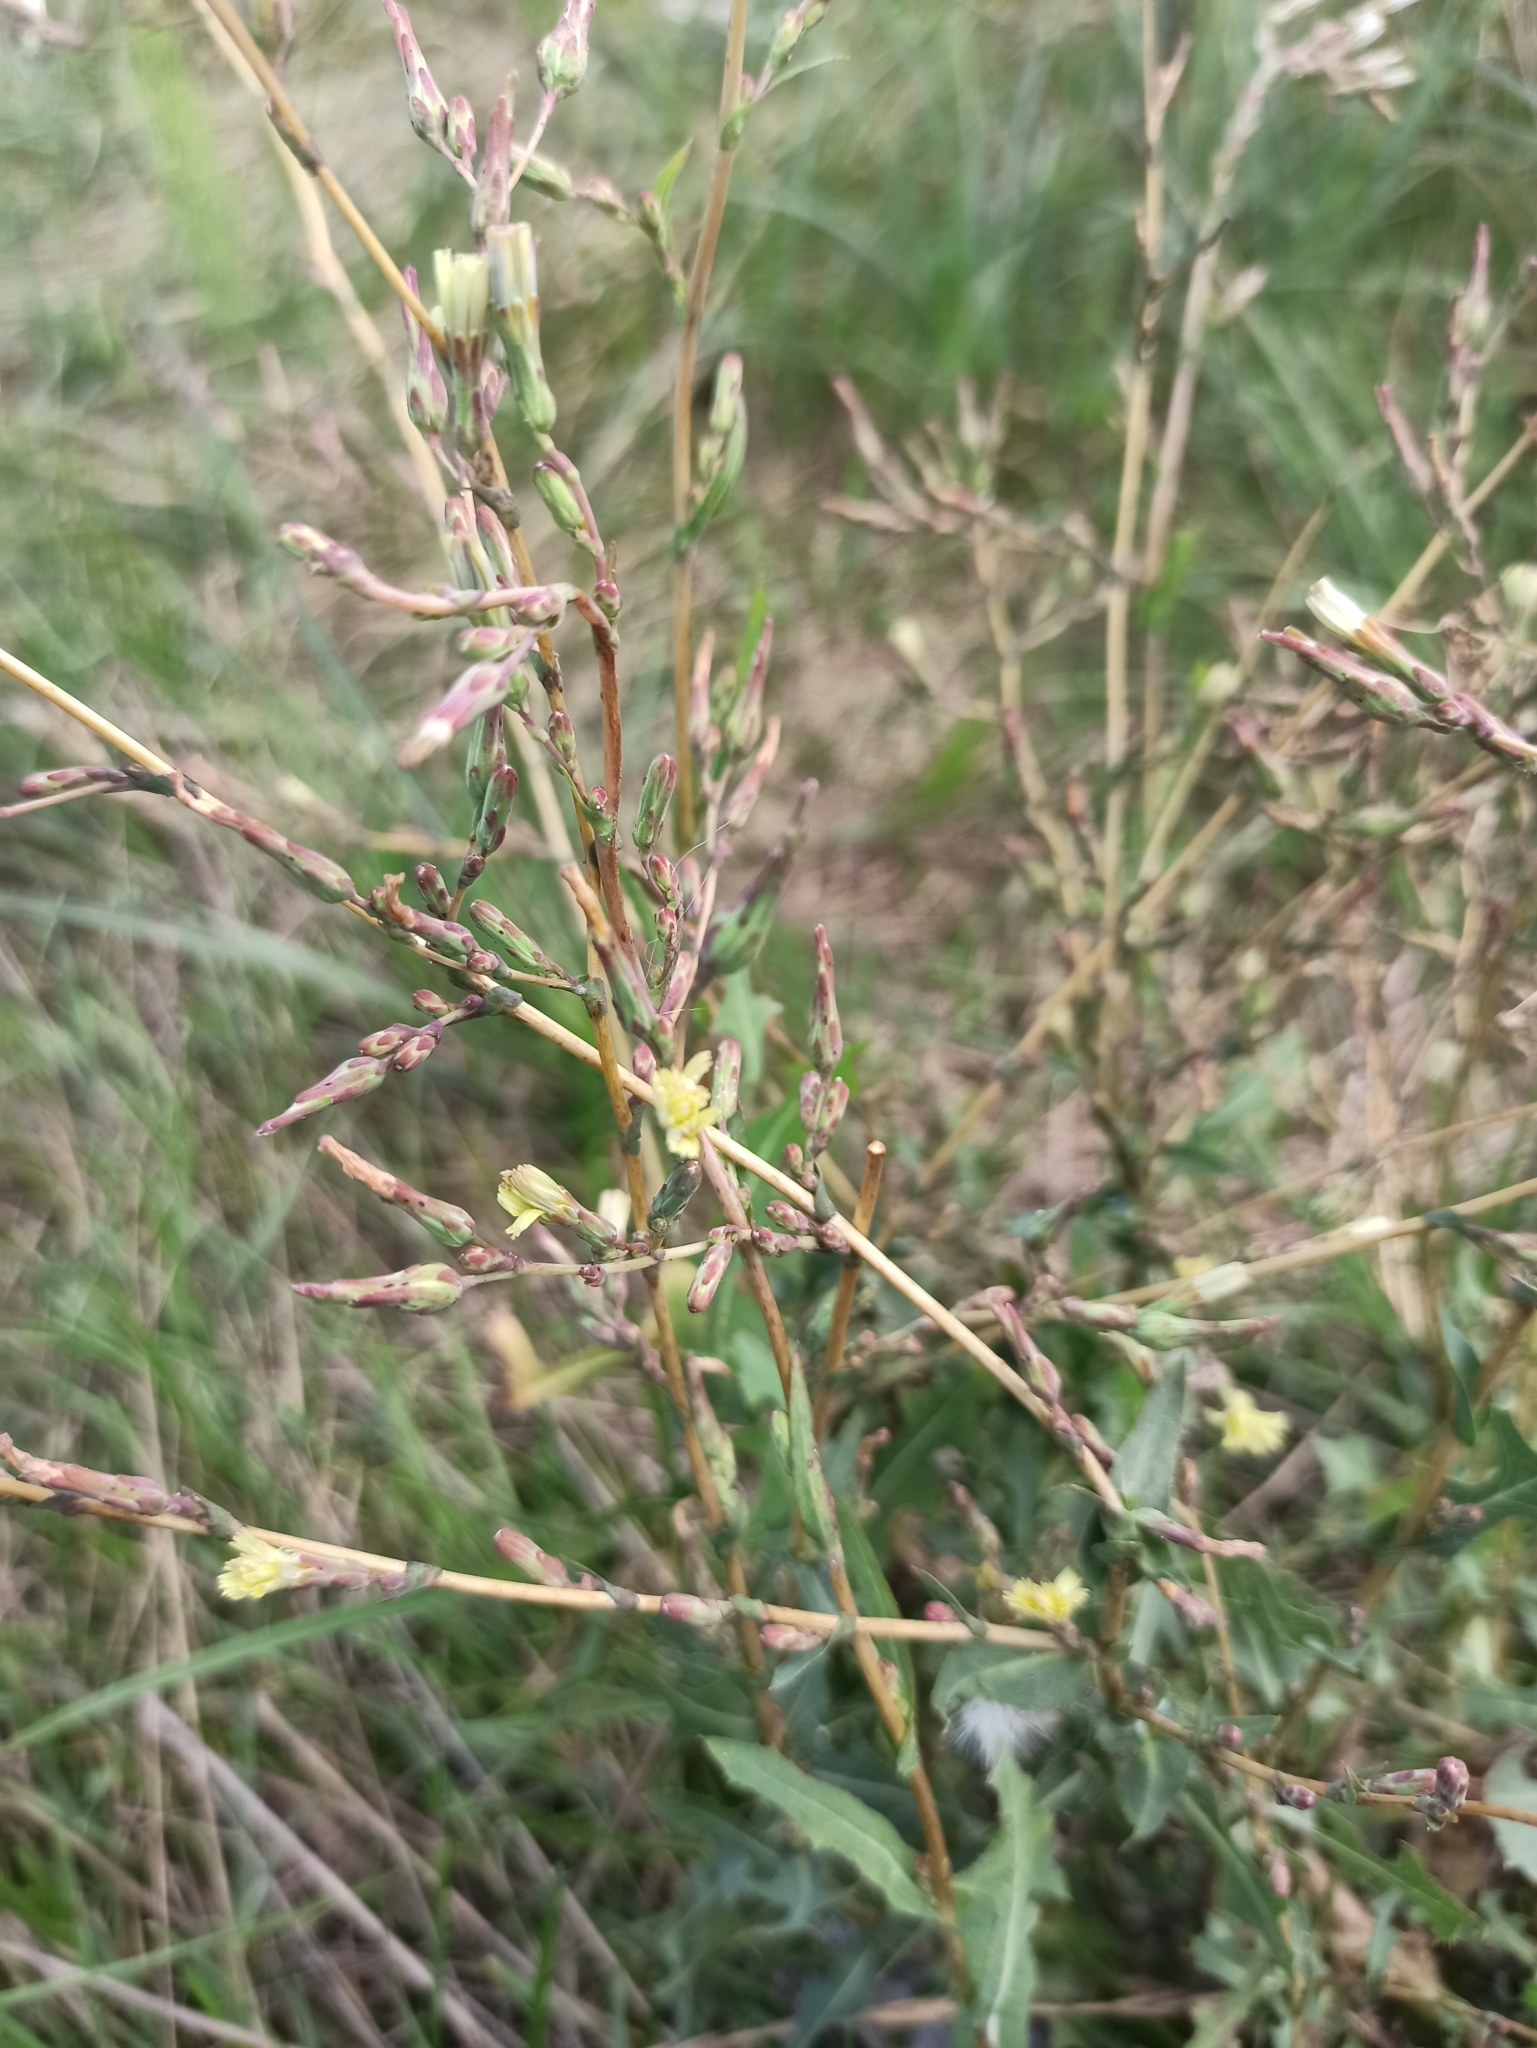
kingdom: Plantae
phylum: Tracheophyta
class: Magnoliopsida
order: Asterales
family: Asteraceae
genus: Lactuca
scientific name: Lactuca serriola
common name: Prickly lettuce
